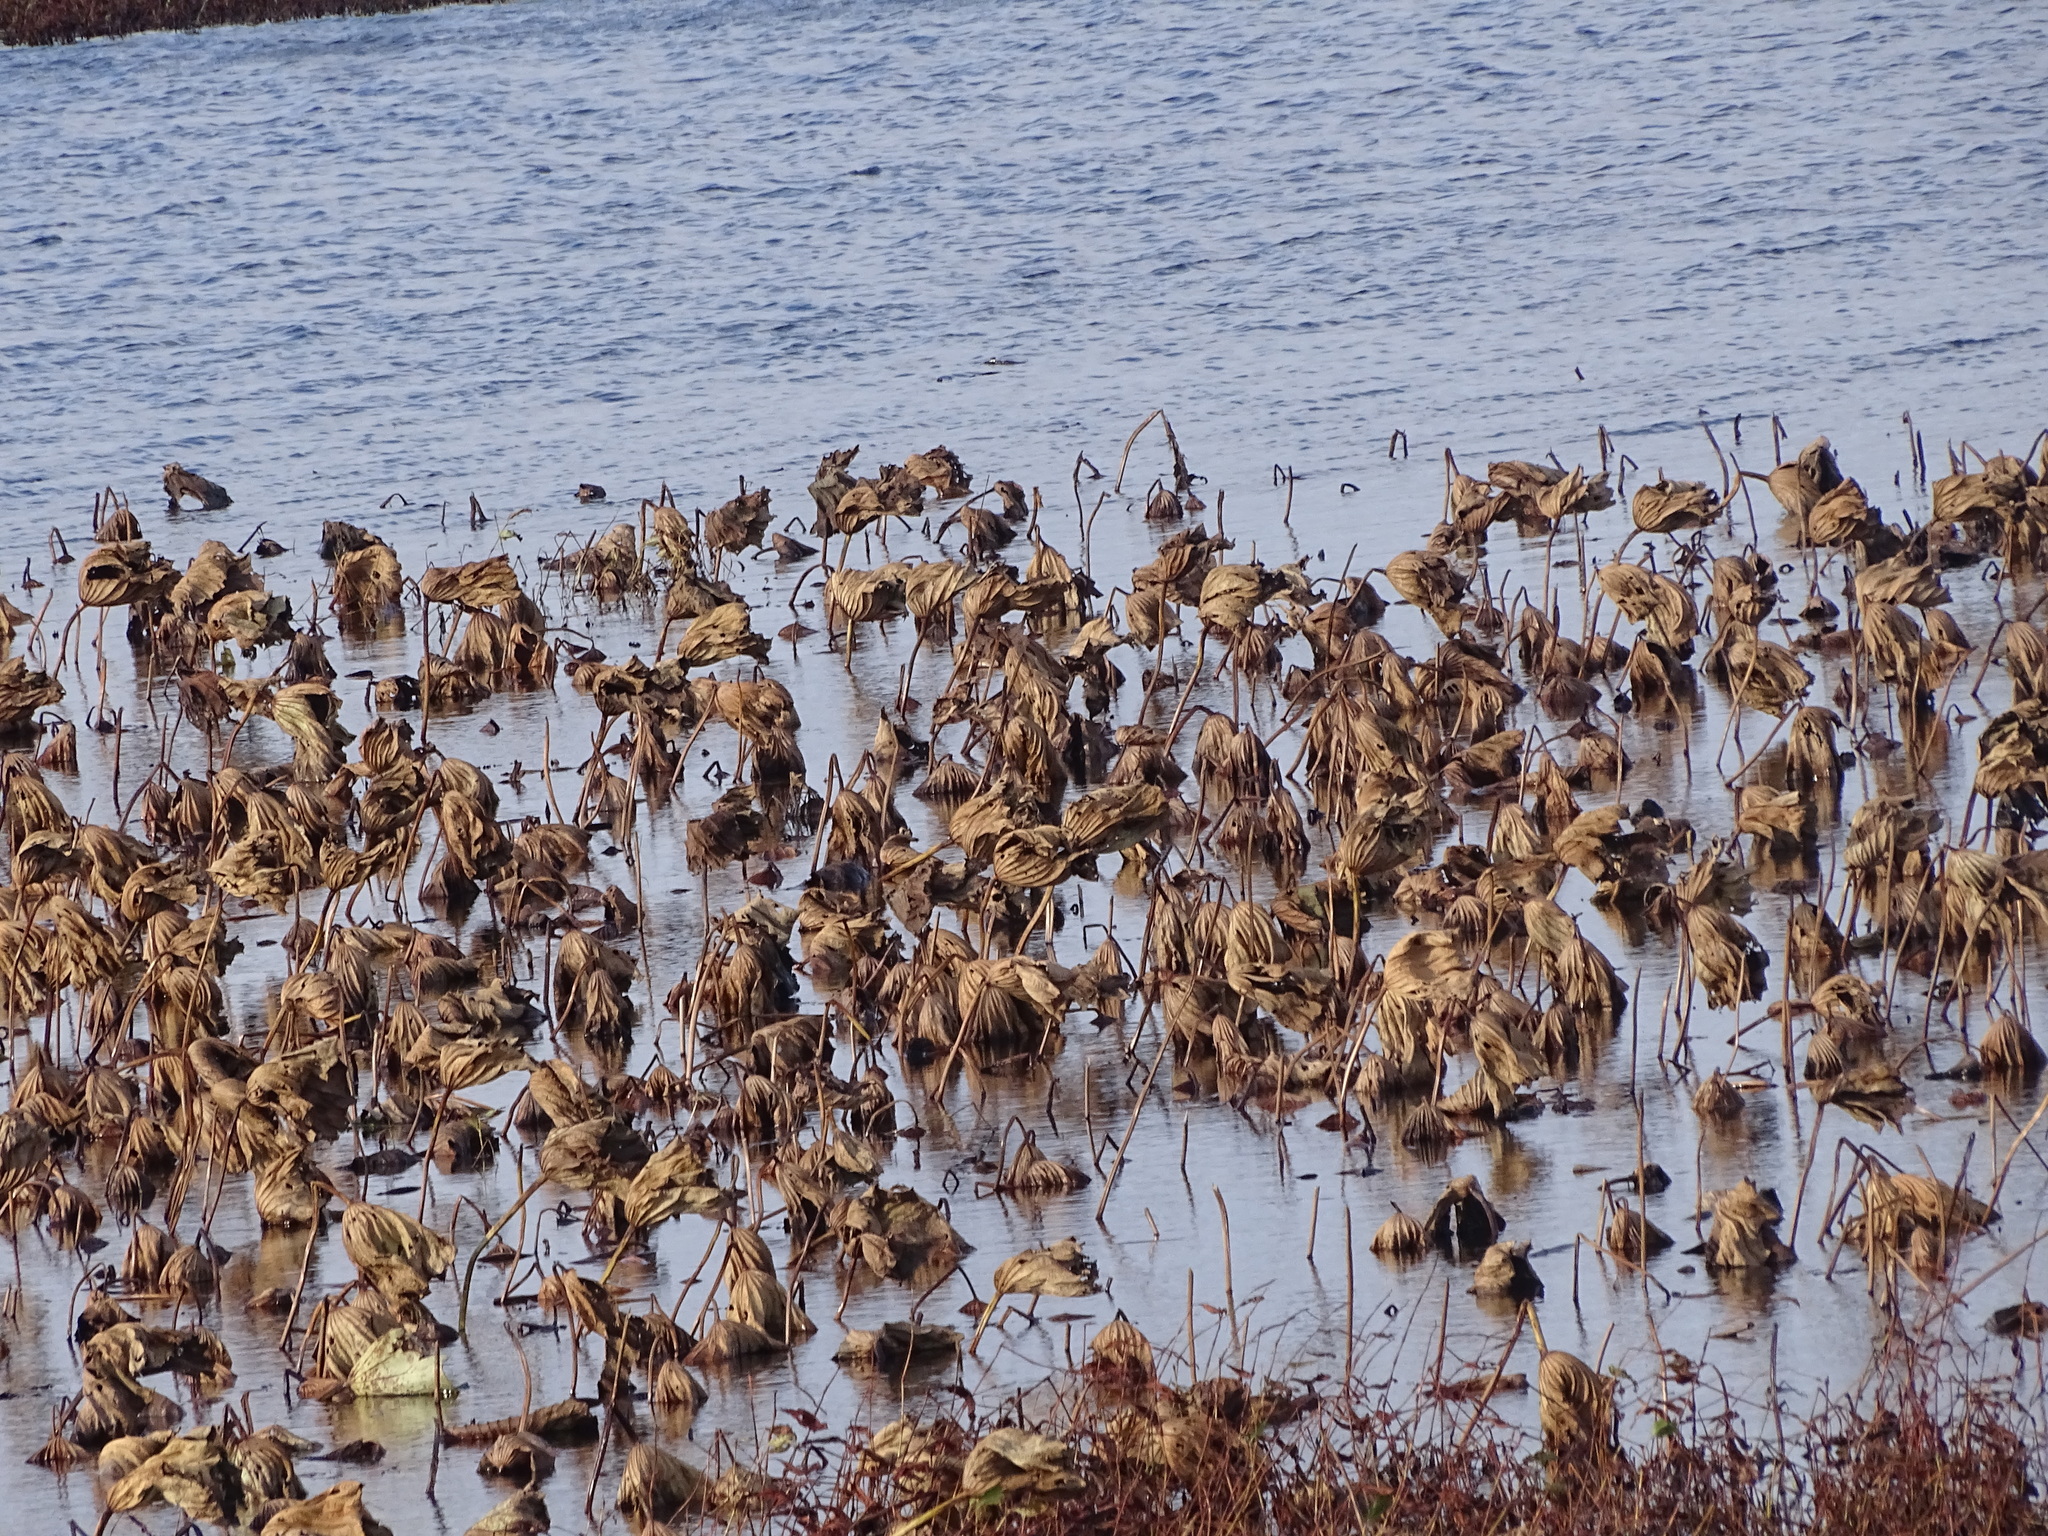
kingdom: Plantae
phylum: Tracheophyta
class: Magnoliopsida
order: Proteales
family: Nelumbonaceae
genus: Nelumbo
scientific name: Nelumbo lutea
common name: American lotus
